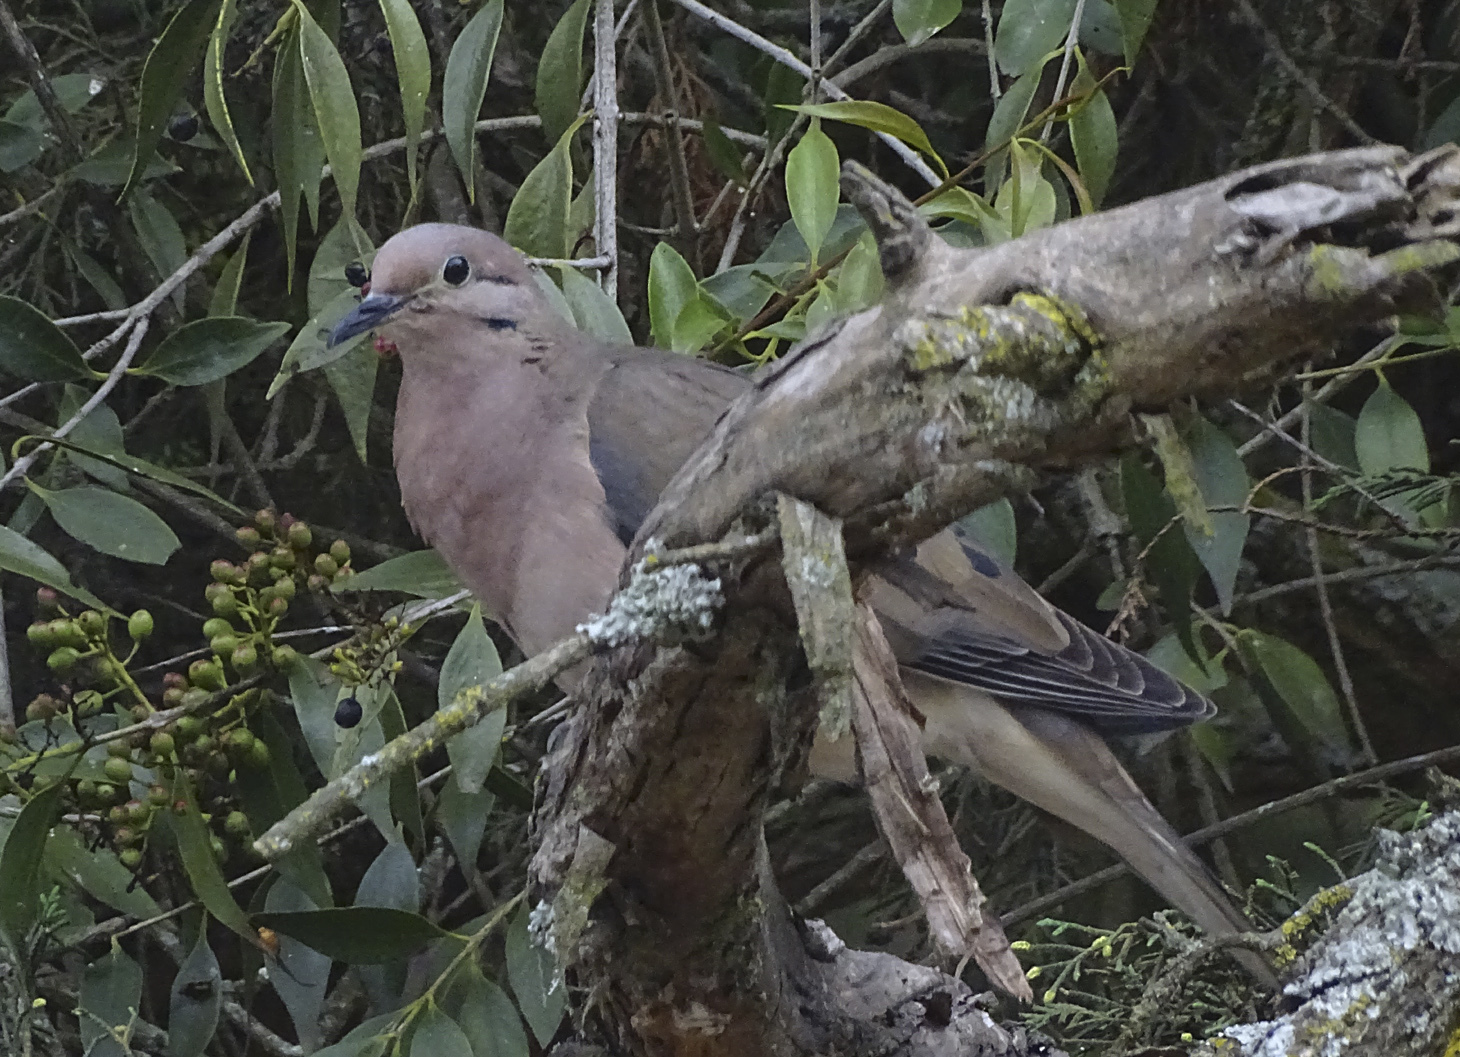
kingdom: Animalia
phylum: Chordata
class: Aves
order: Columbiformes
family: Columbidae
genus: Zenaida
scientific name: Zenaida auriculata
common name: Eared dove
